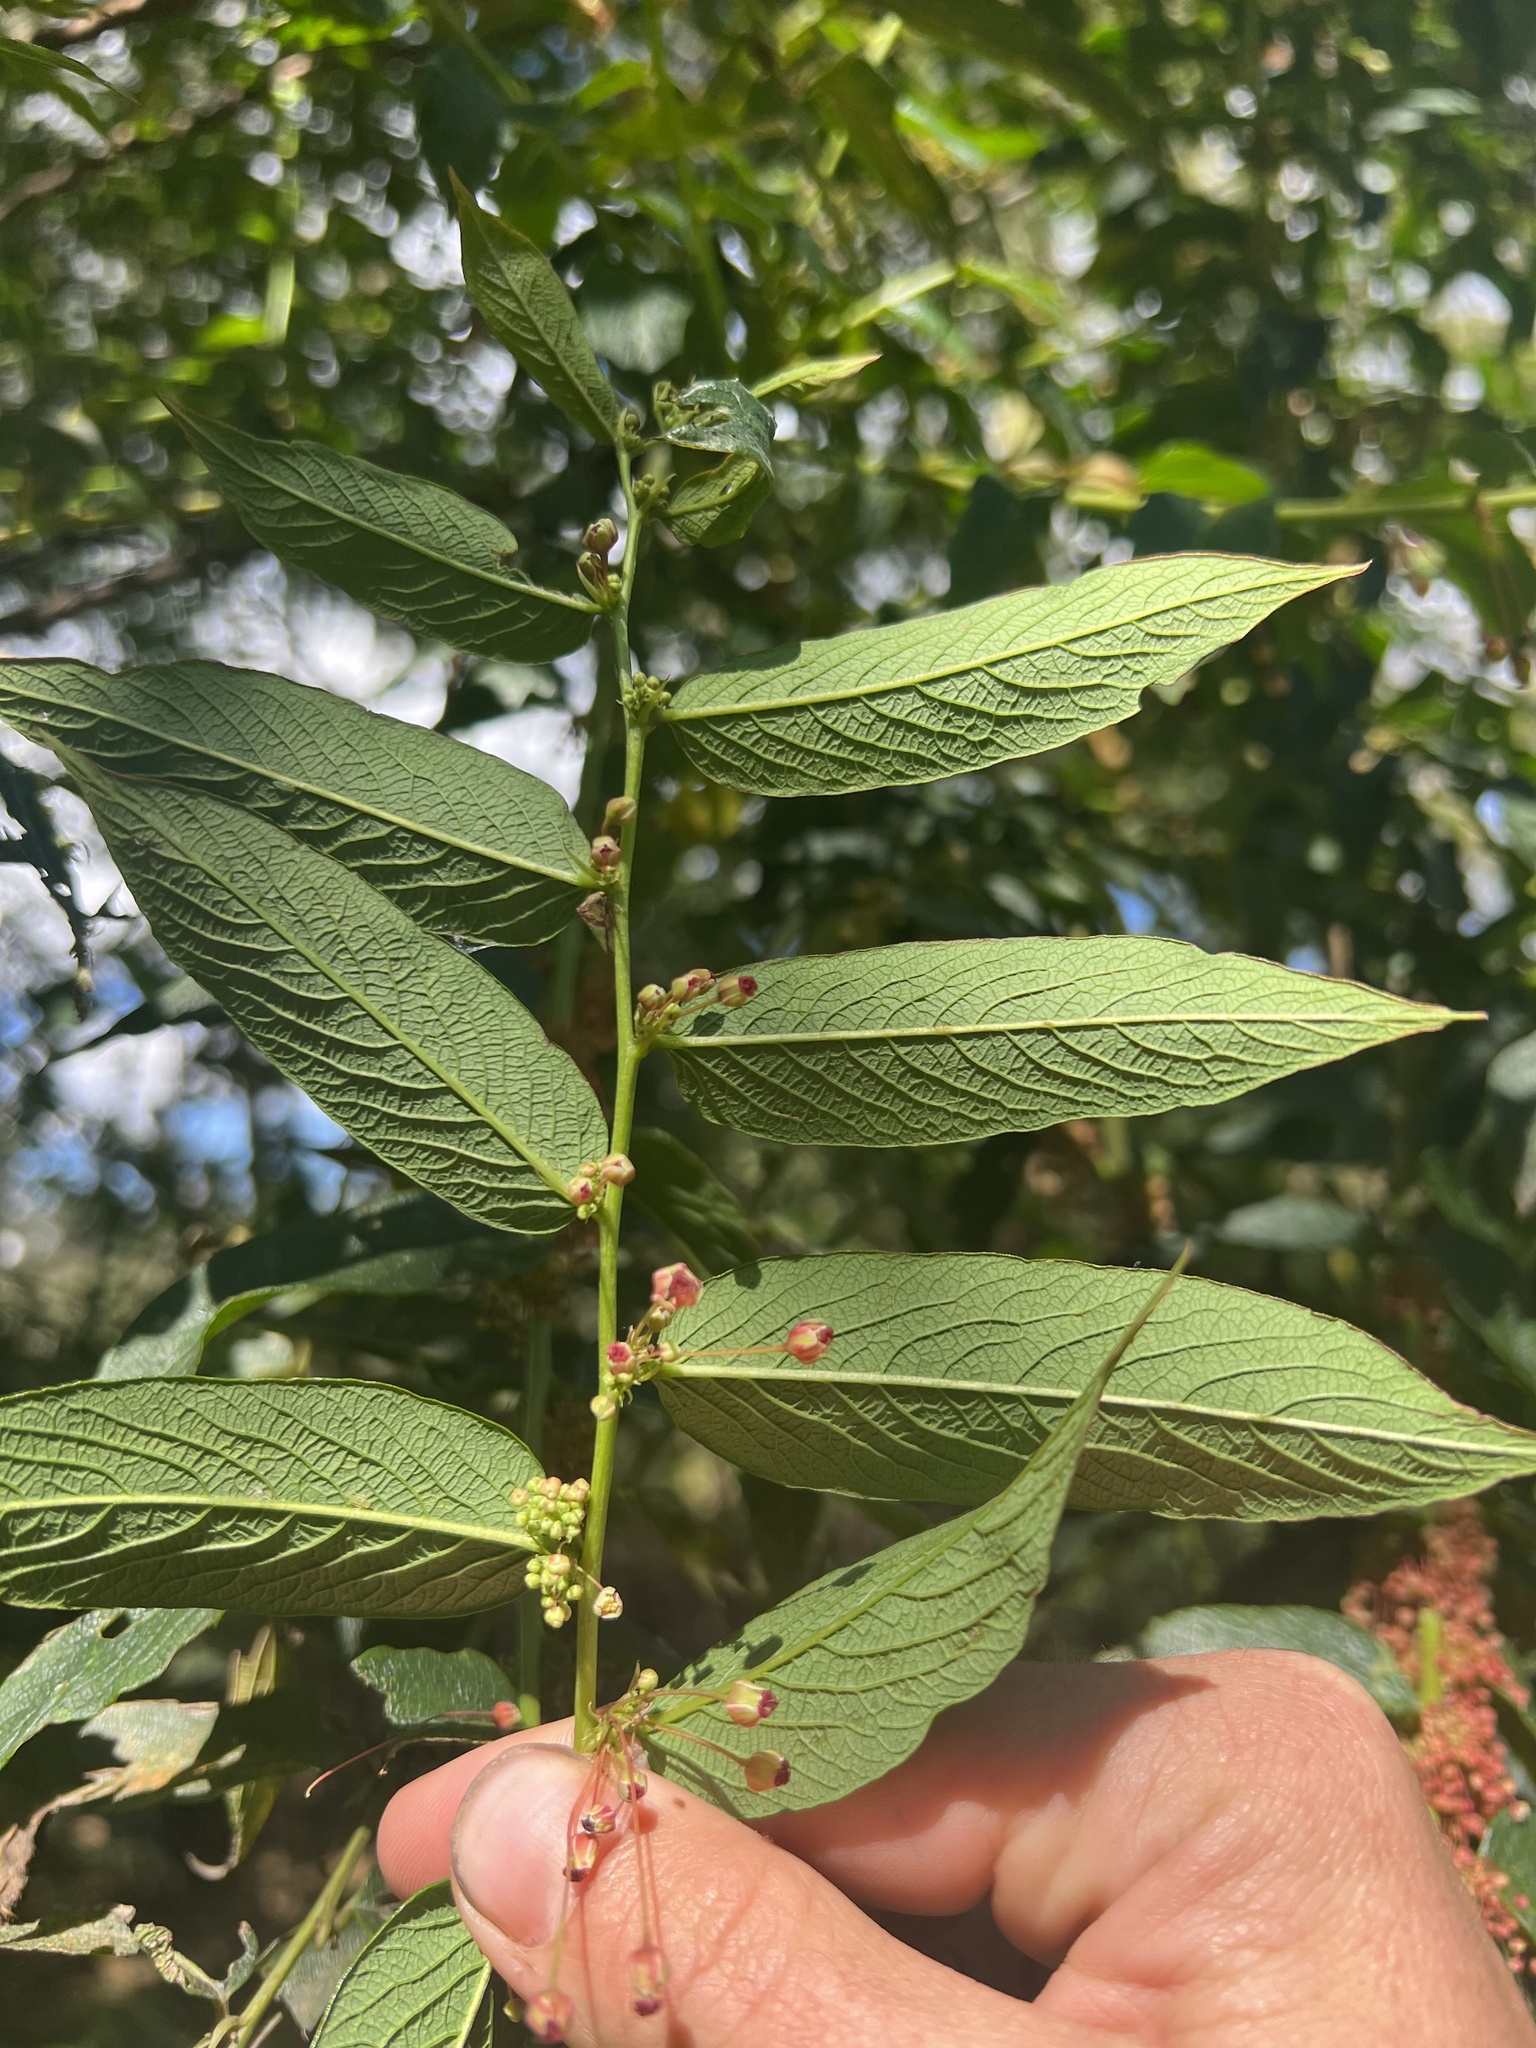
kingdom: Plantae
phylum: Tracheophyta
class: Magnoliopsida
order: Malpighiales
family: Phyllanthaceae
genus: Phyllanthus
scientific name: Phyllanthus salviifolius
